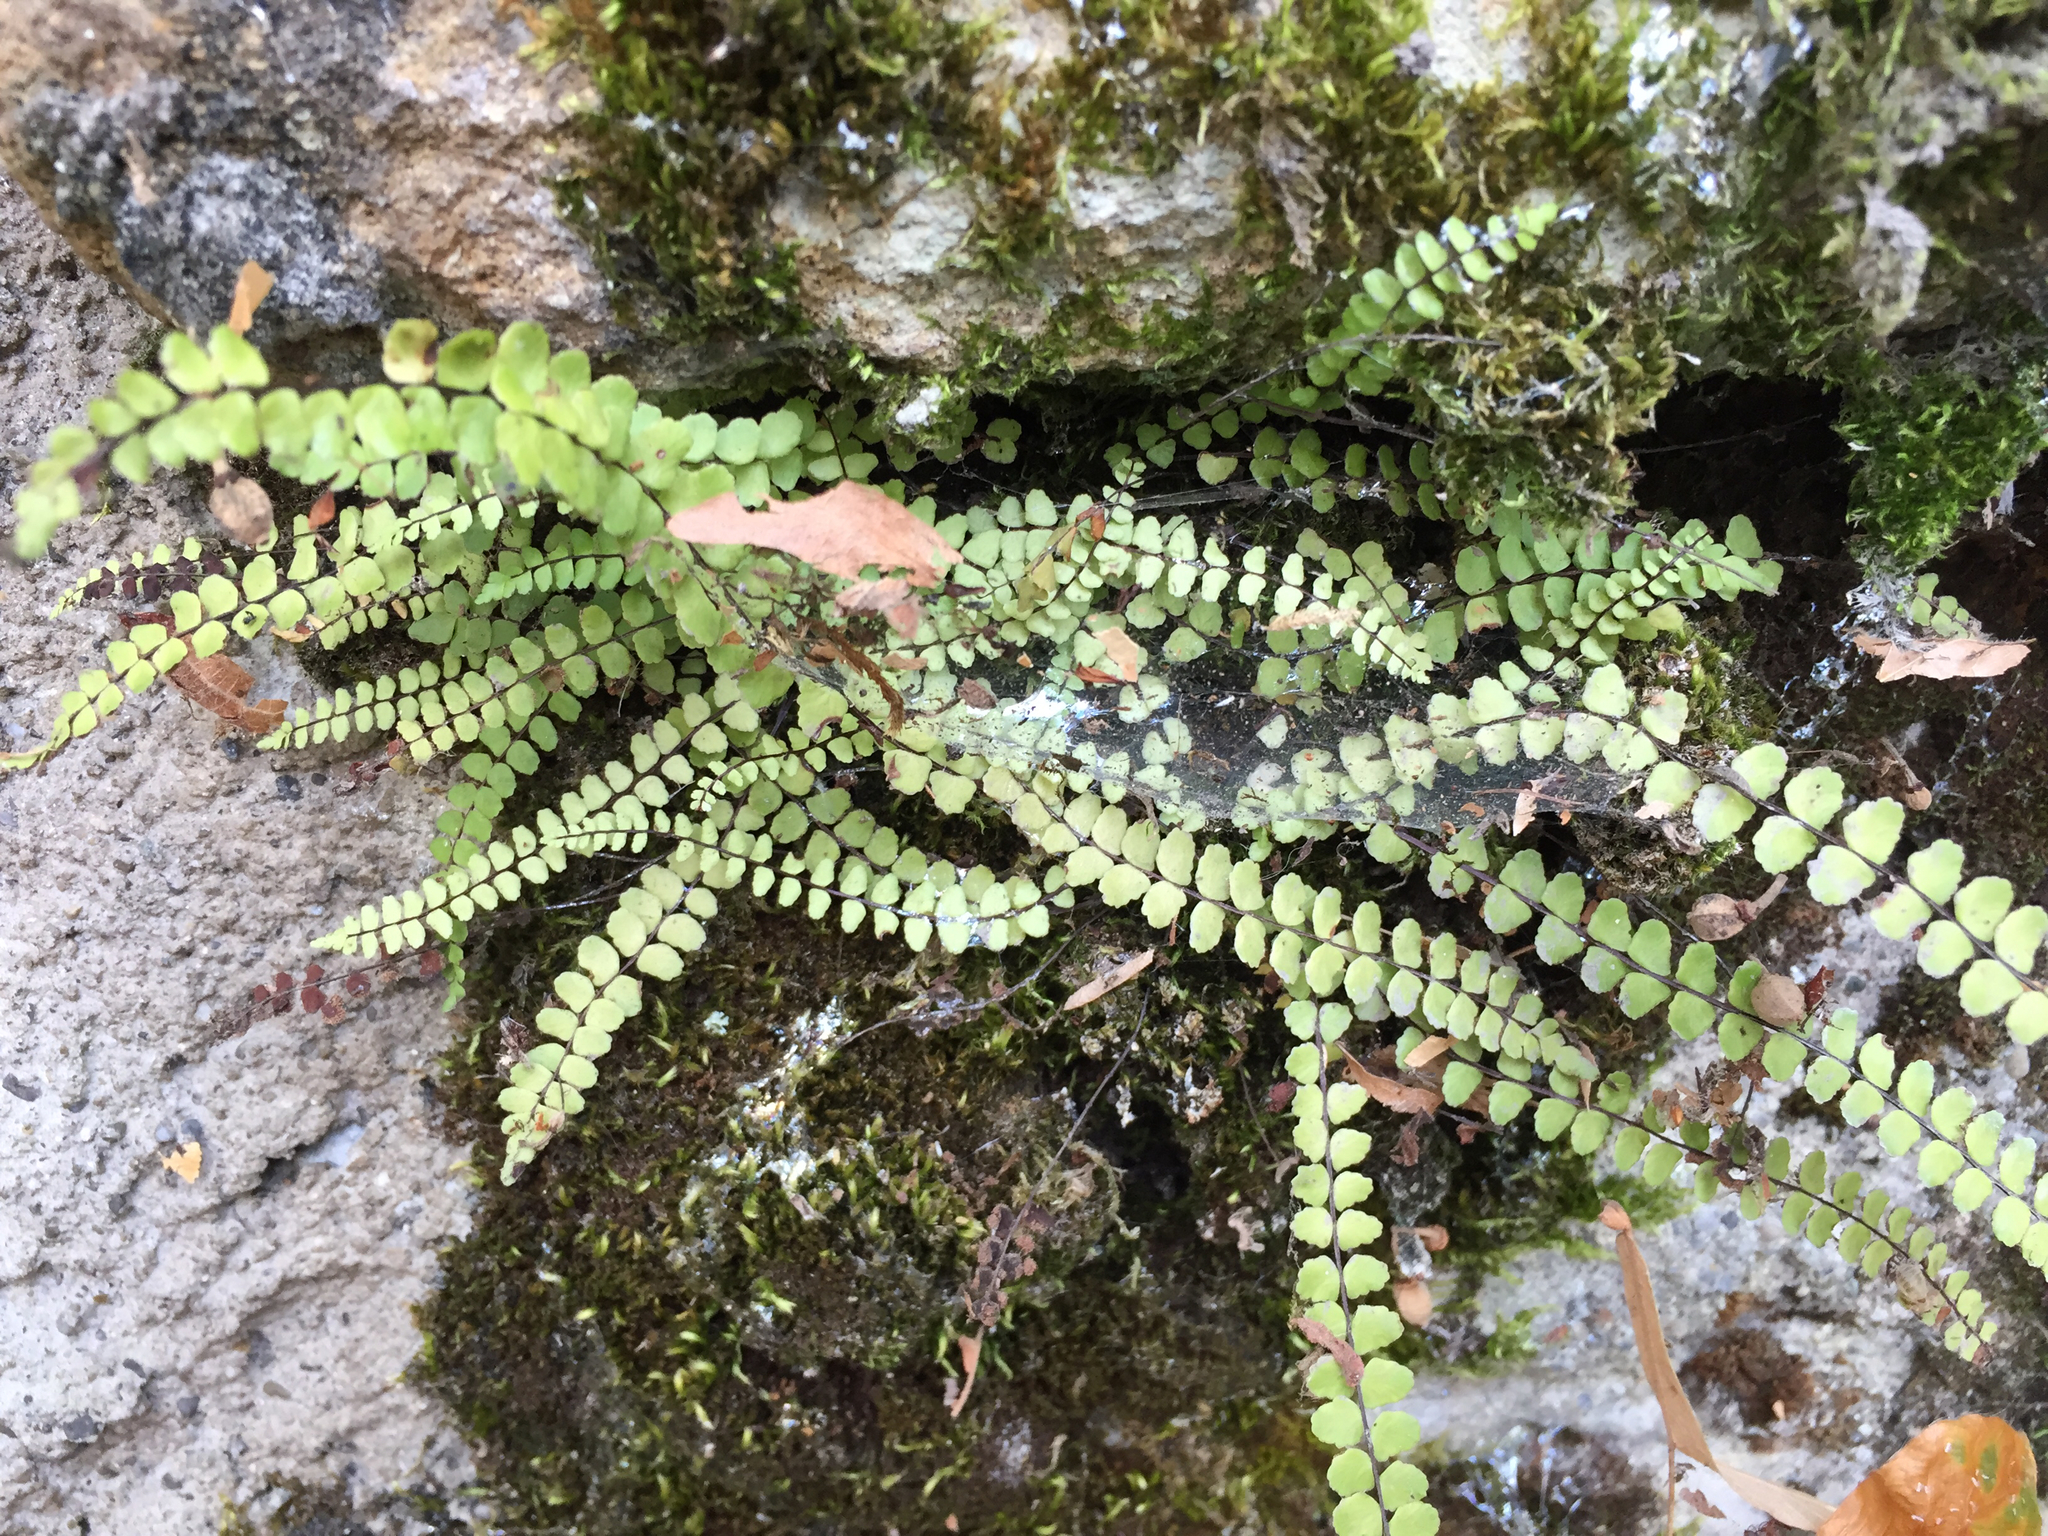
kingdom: Plantae
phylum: Tracheophyta
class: Polypodiopsida
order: Polypodiales
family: Aspleniaceae
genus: Asplenium
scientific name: Asplenium trichomanes
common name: Maidenhair spleenwort
